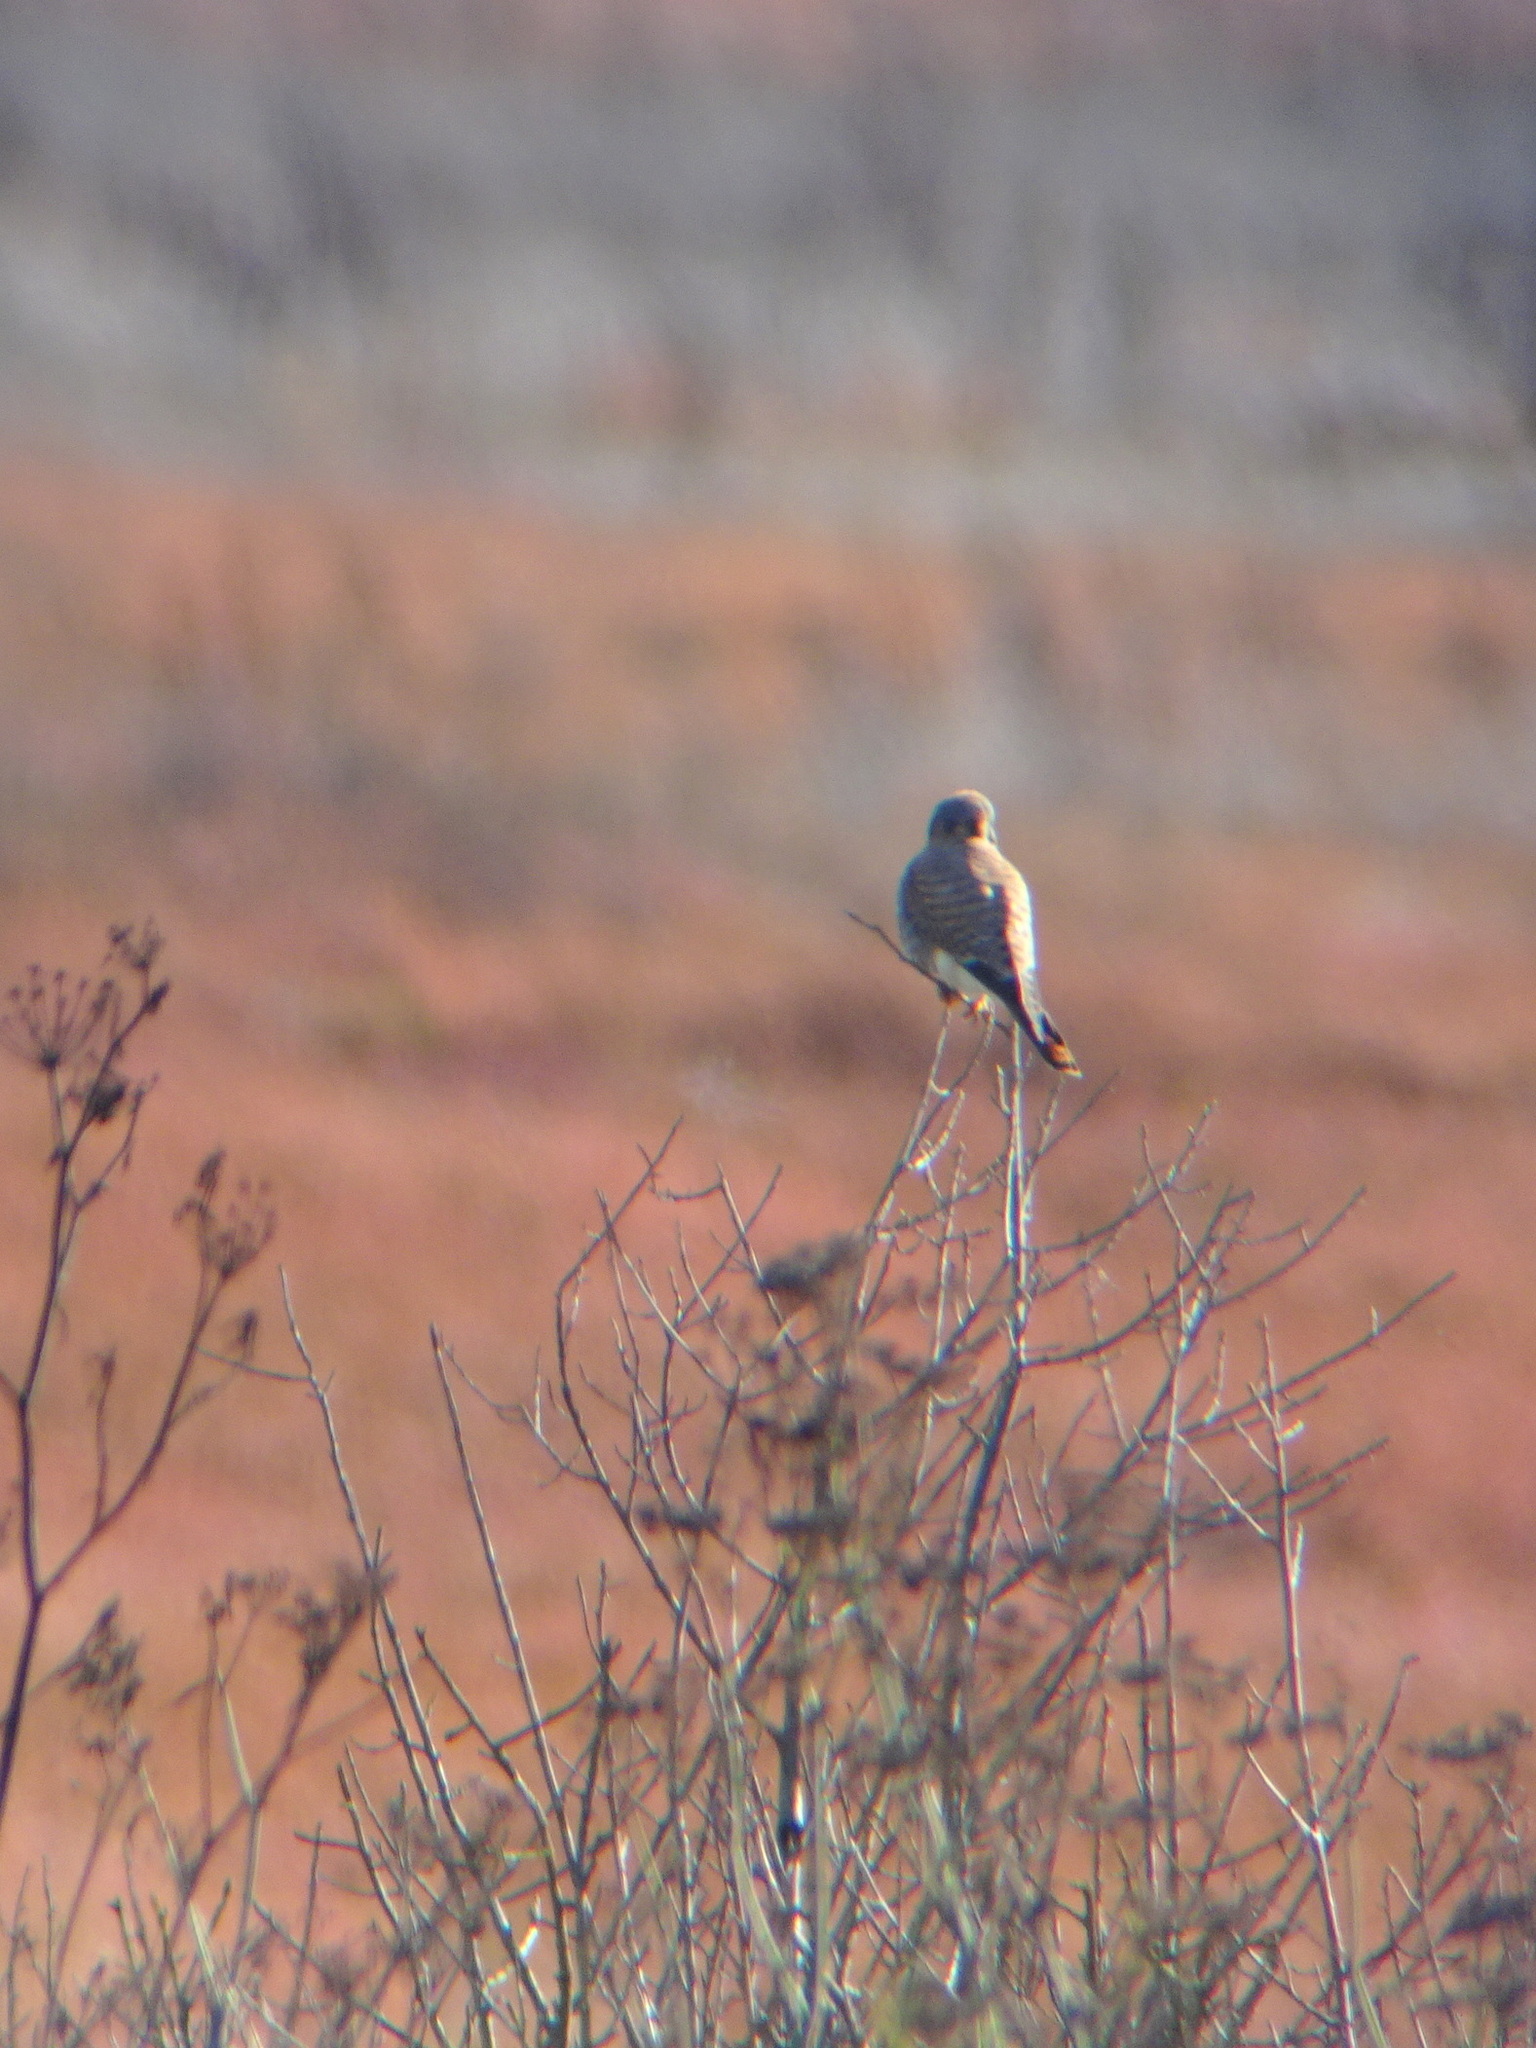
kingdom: Animalia
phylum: Chordata
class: Aves
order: Falconiformes
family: Falconidae
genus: Falco
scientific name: Falco sparverius
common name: American kestrel
